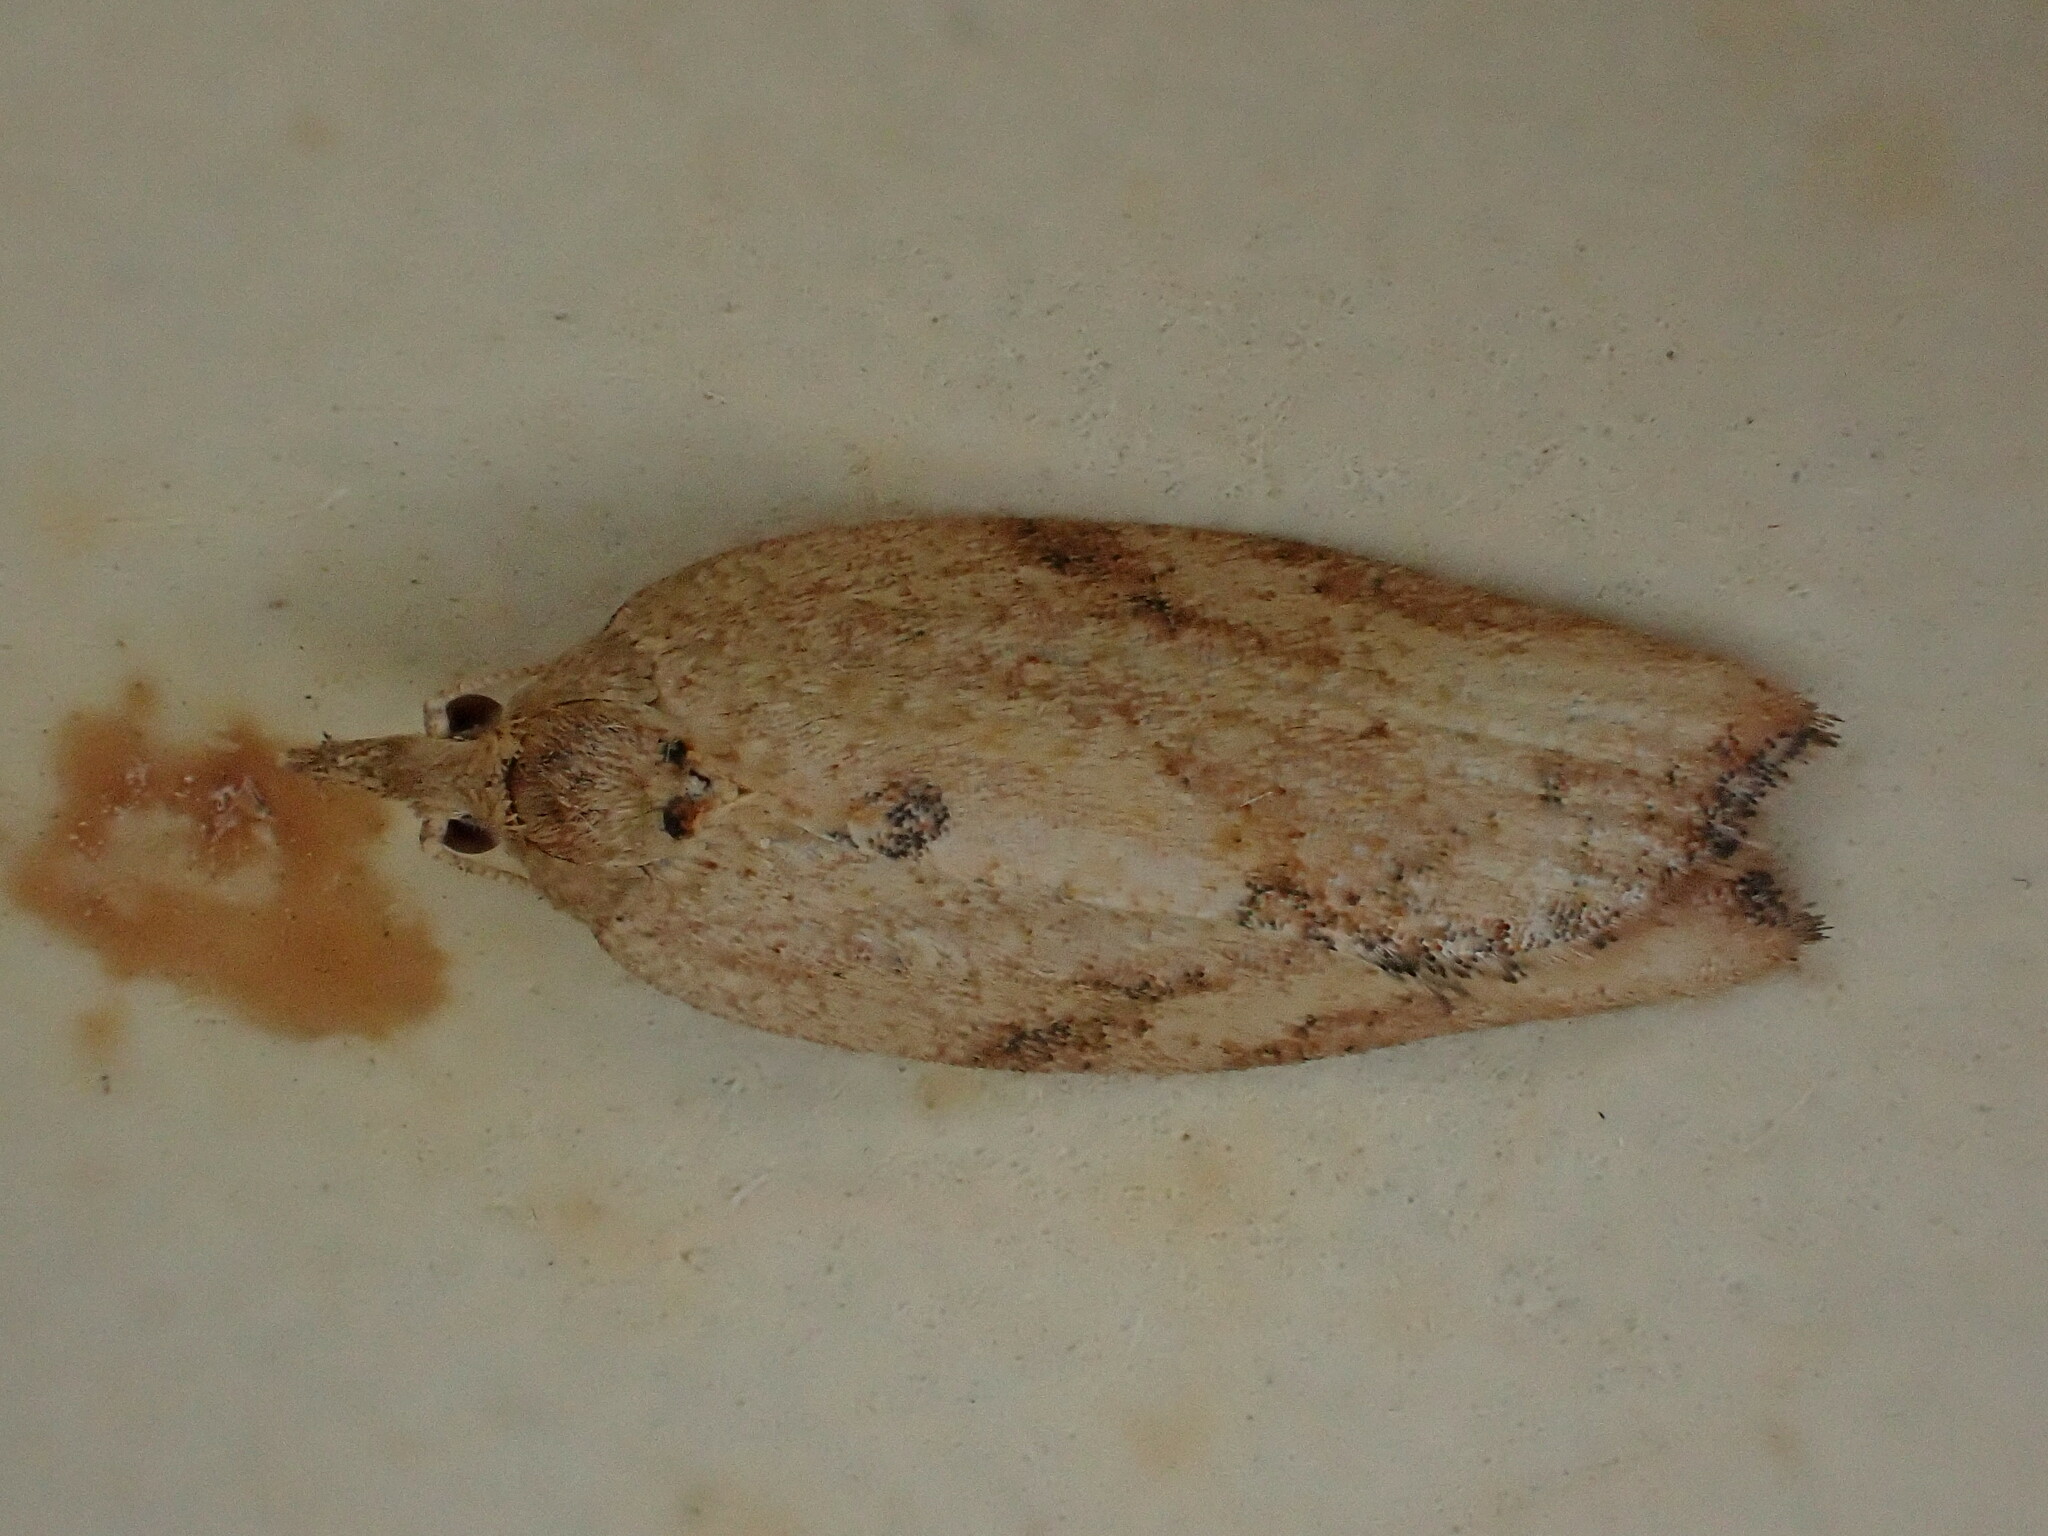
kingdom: Animalia
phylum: Arthropoda
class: Insecta
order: Lepidoptera
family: Tortricidae
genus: Epiphyas
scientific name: Epiphyas postvittana
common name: Light brown apple moth
